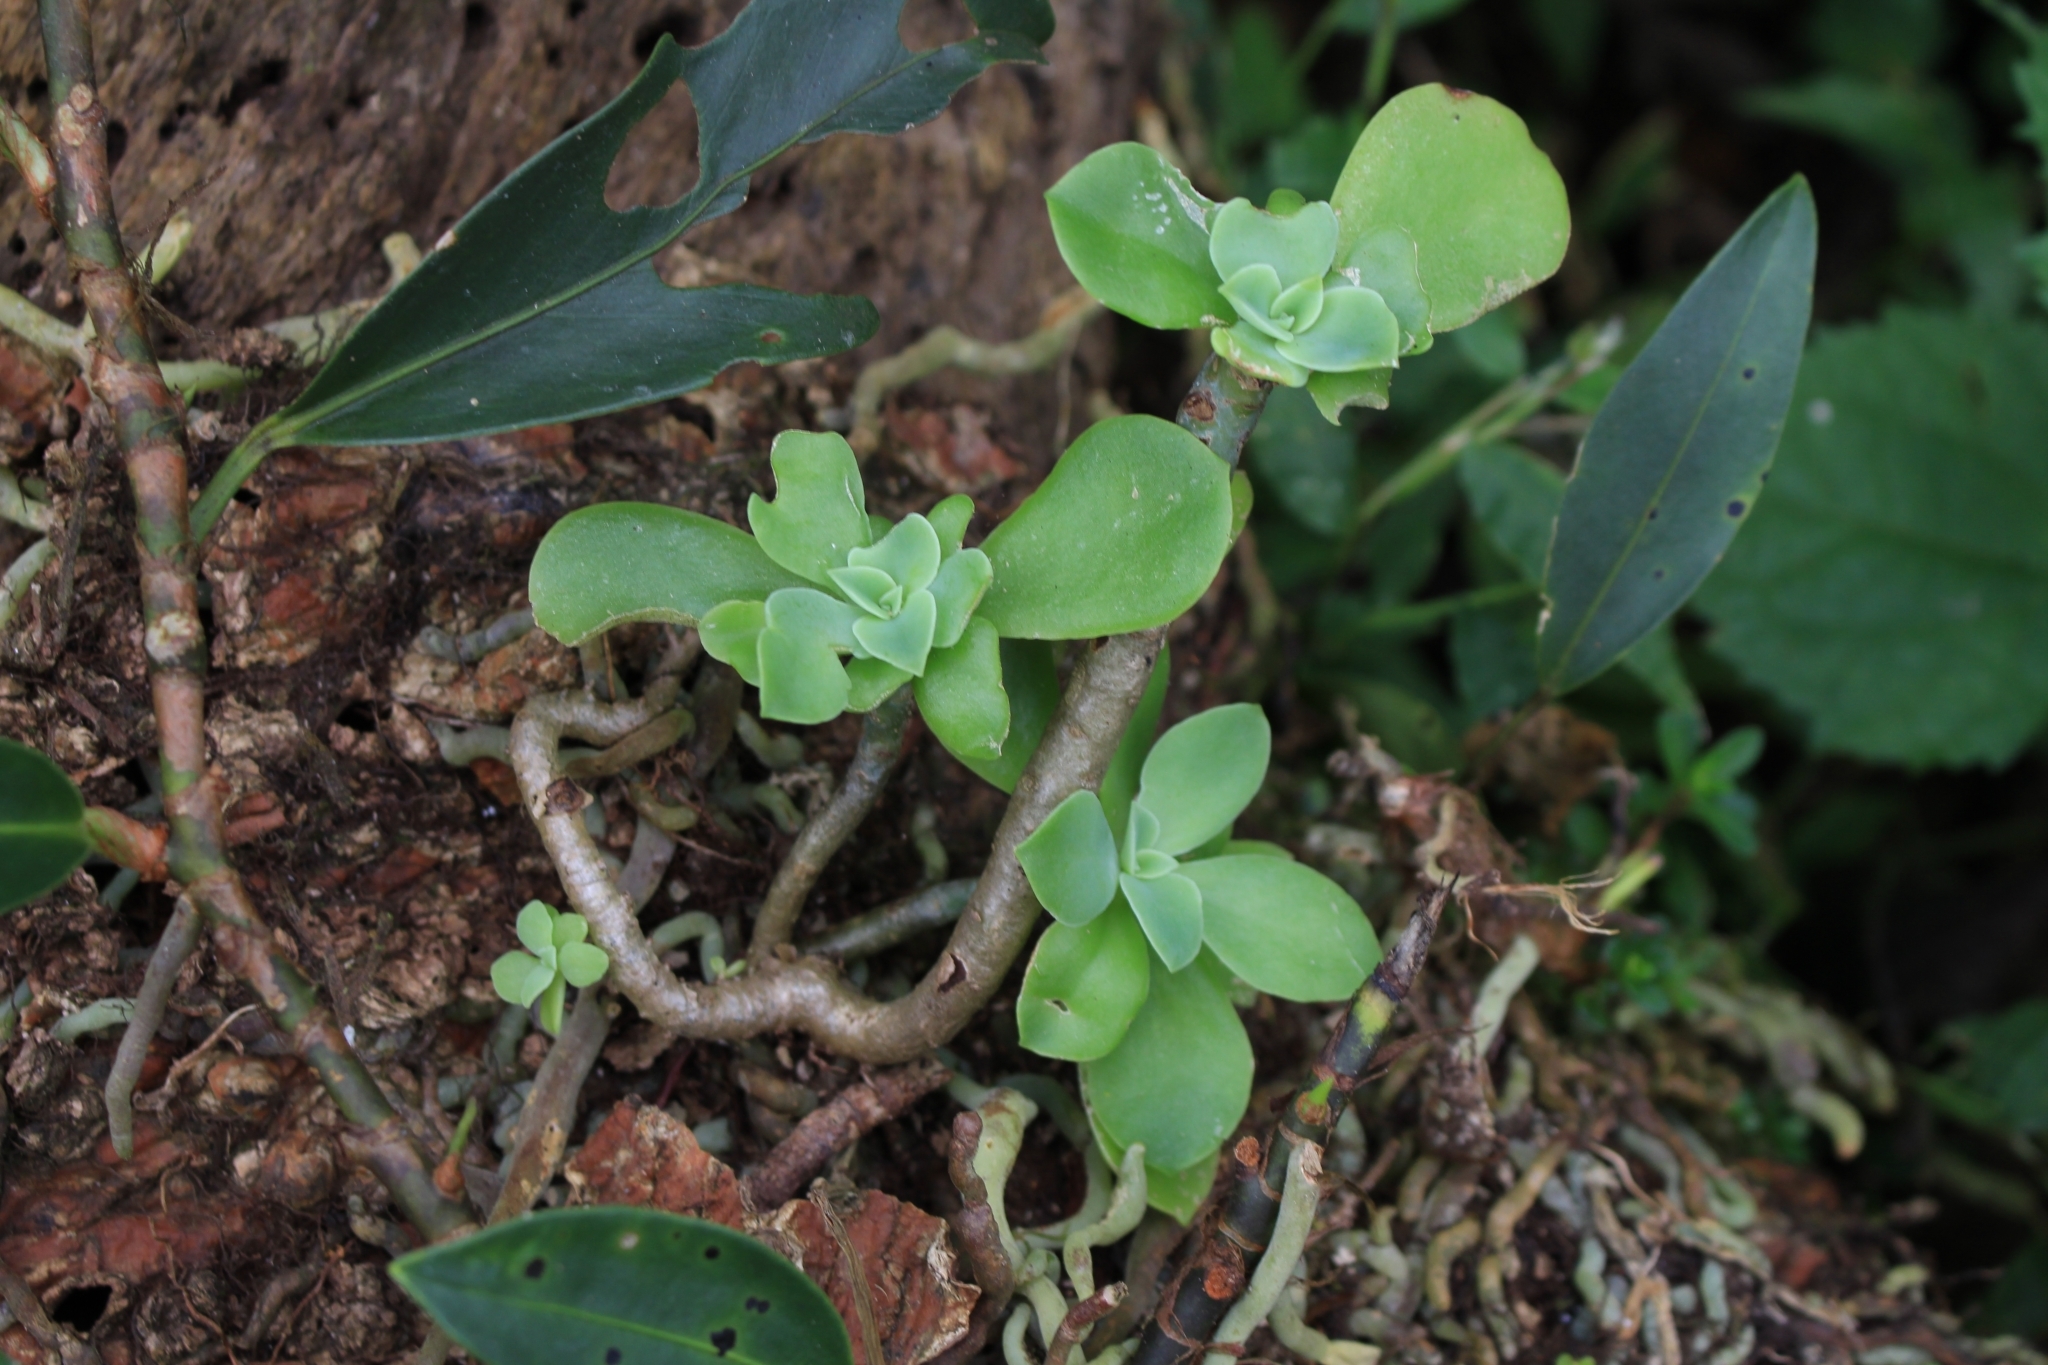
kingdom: Plantae
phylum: Tracheophyta
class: Magnoliopsida
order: Saxifragales
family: Crassulaceae
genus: Echeveria
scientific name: Echeveria australis
